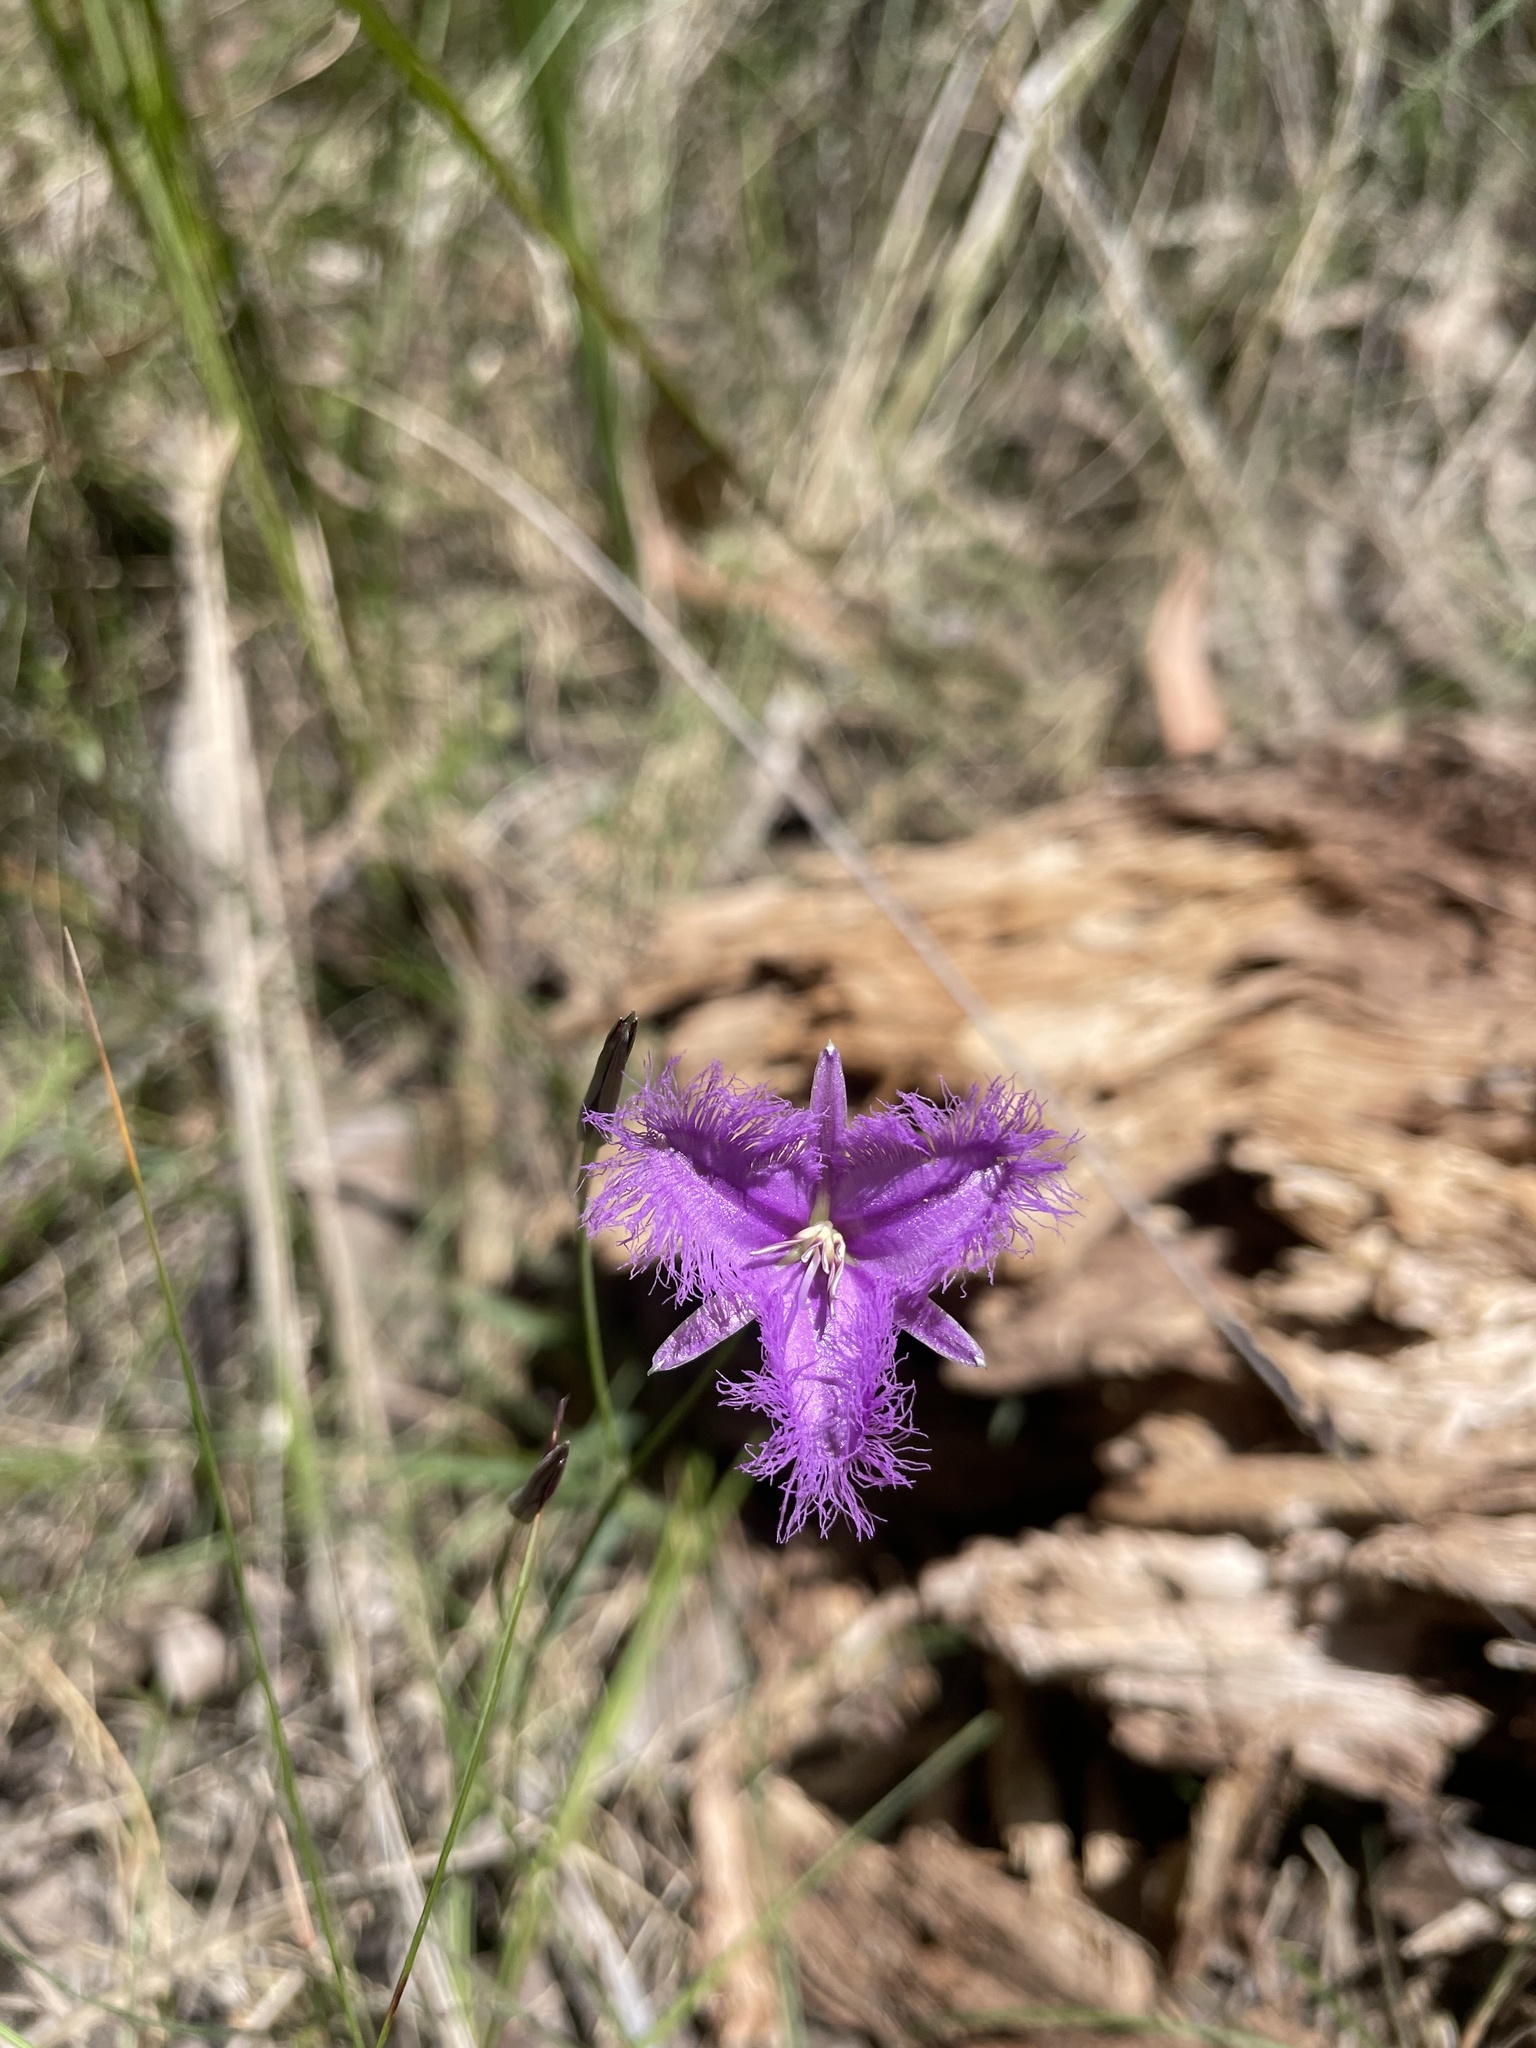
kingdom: Plantae
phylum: Tracheophyta
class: Liliopsida
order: Asparagales
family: Asparagaceae
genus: Thysanotus
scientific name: Thysanotus tuberosus
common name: Common fringed-lily
